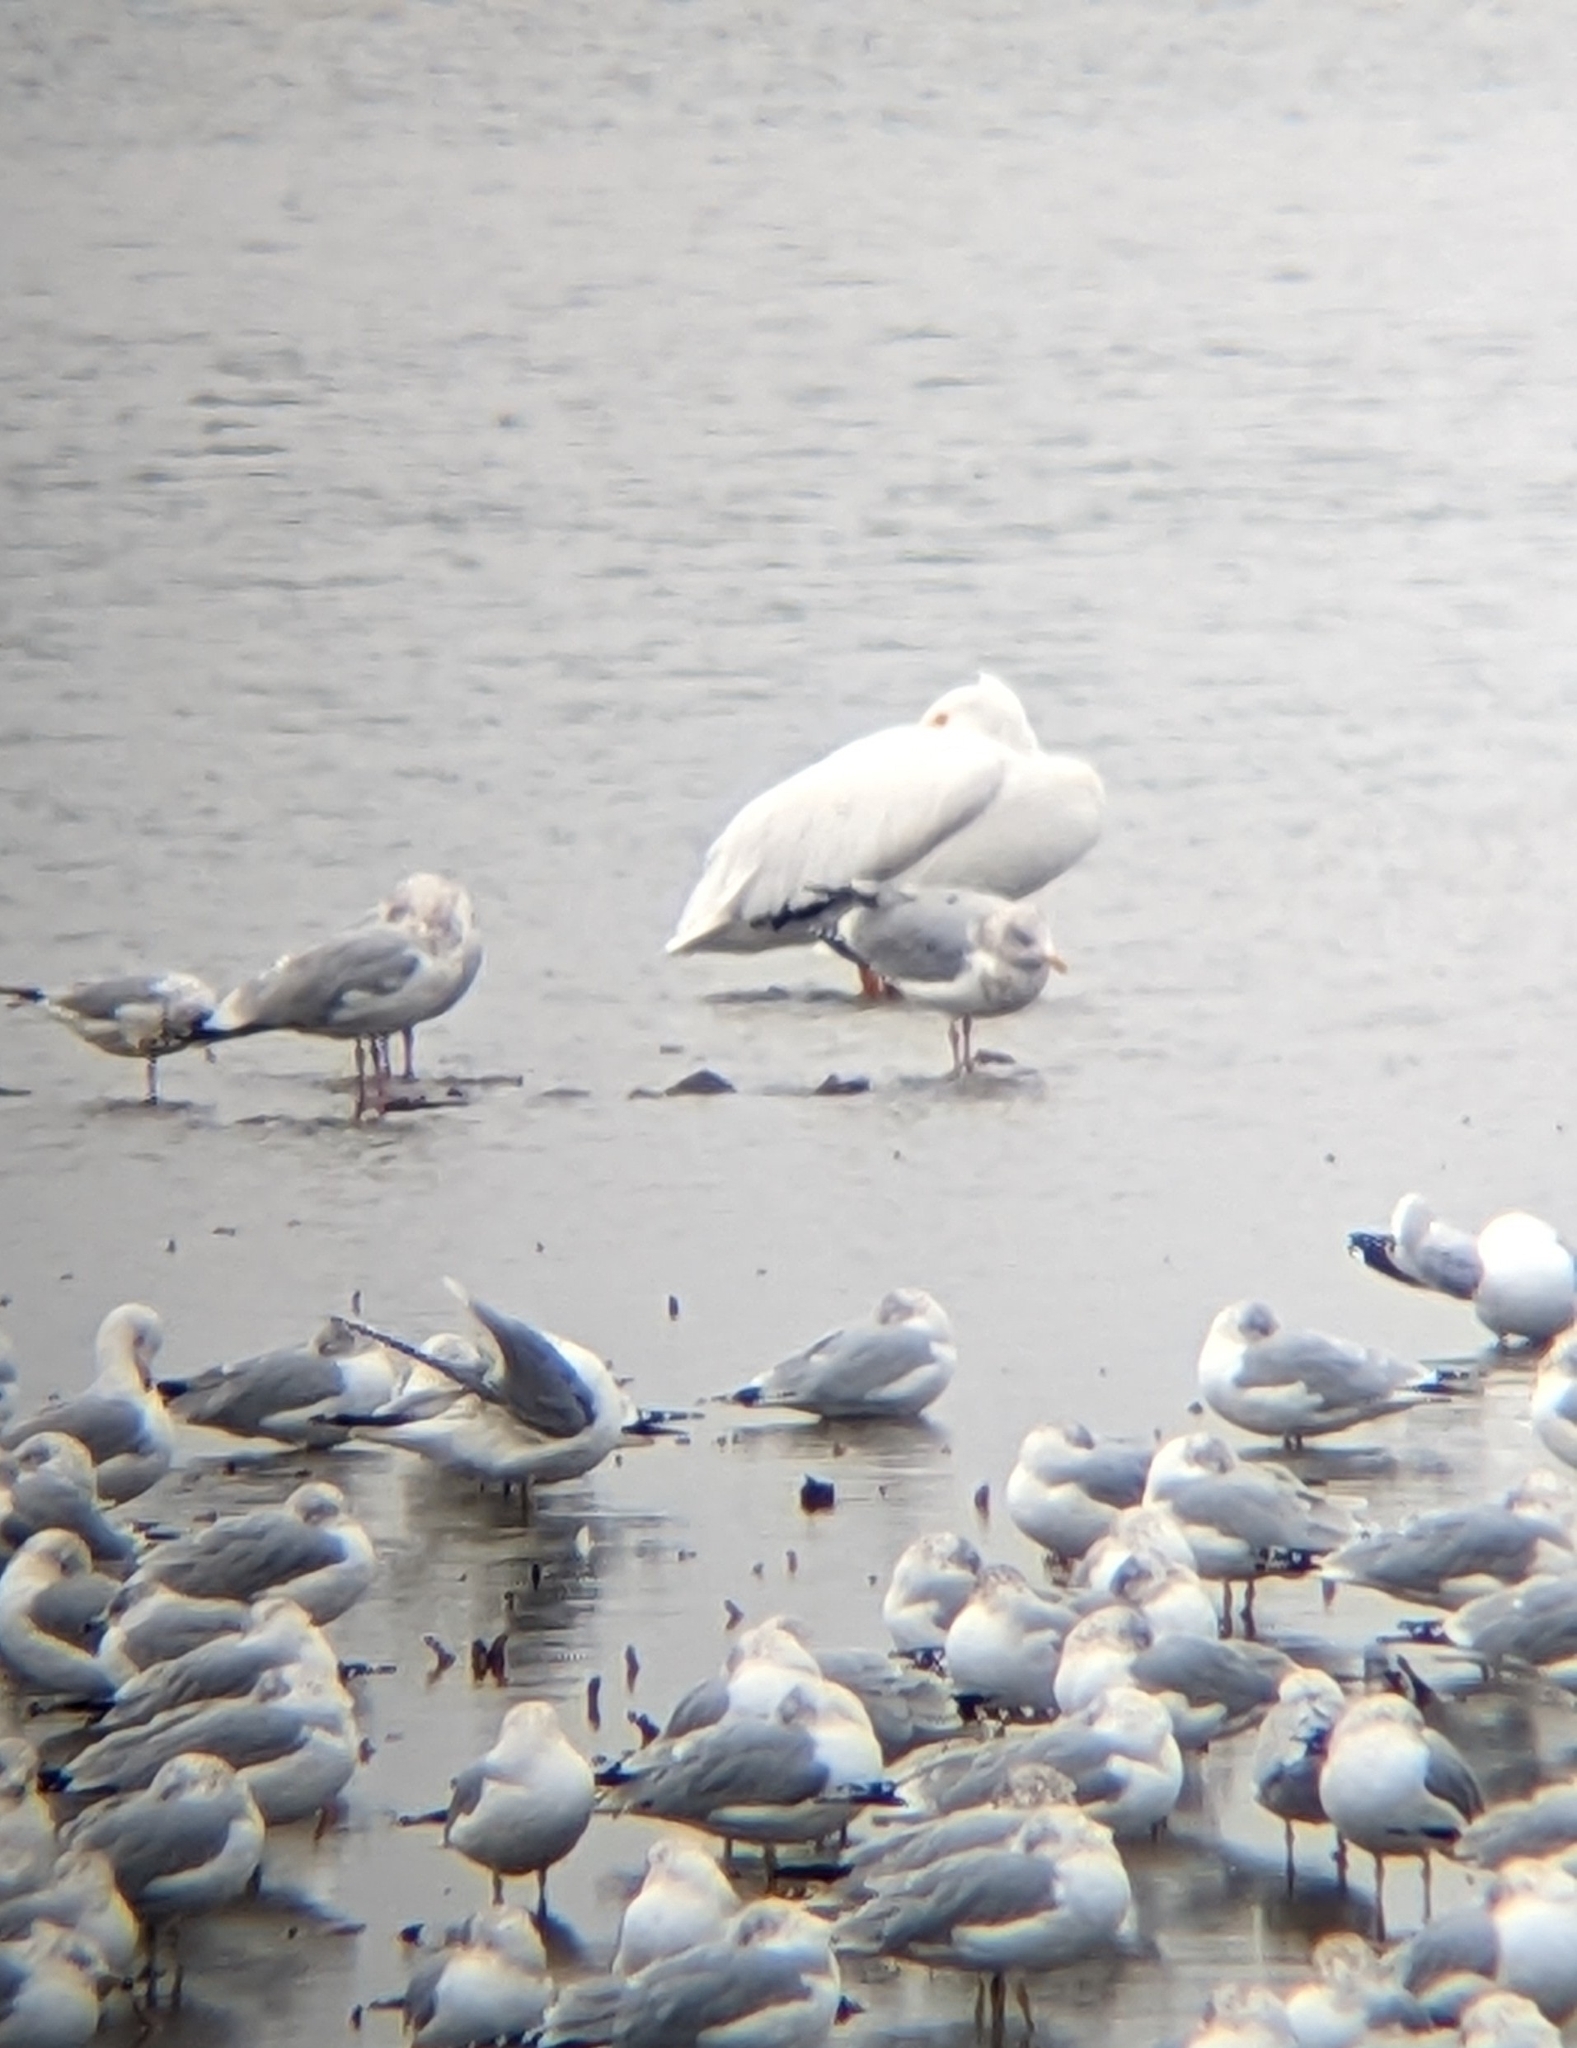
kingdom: Animalia
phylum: Chordata
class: Aves
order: Pelecaniformes
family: Pelecanidae
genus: Pelecanus
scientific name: Pelecanus erythrorhynchos
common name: American white pelican
